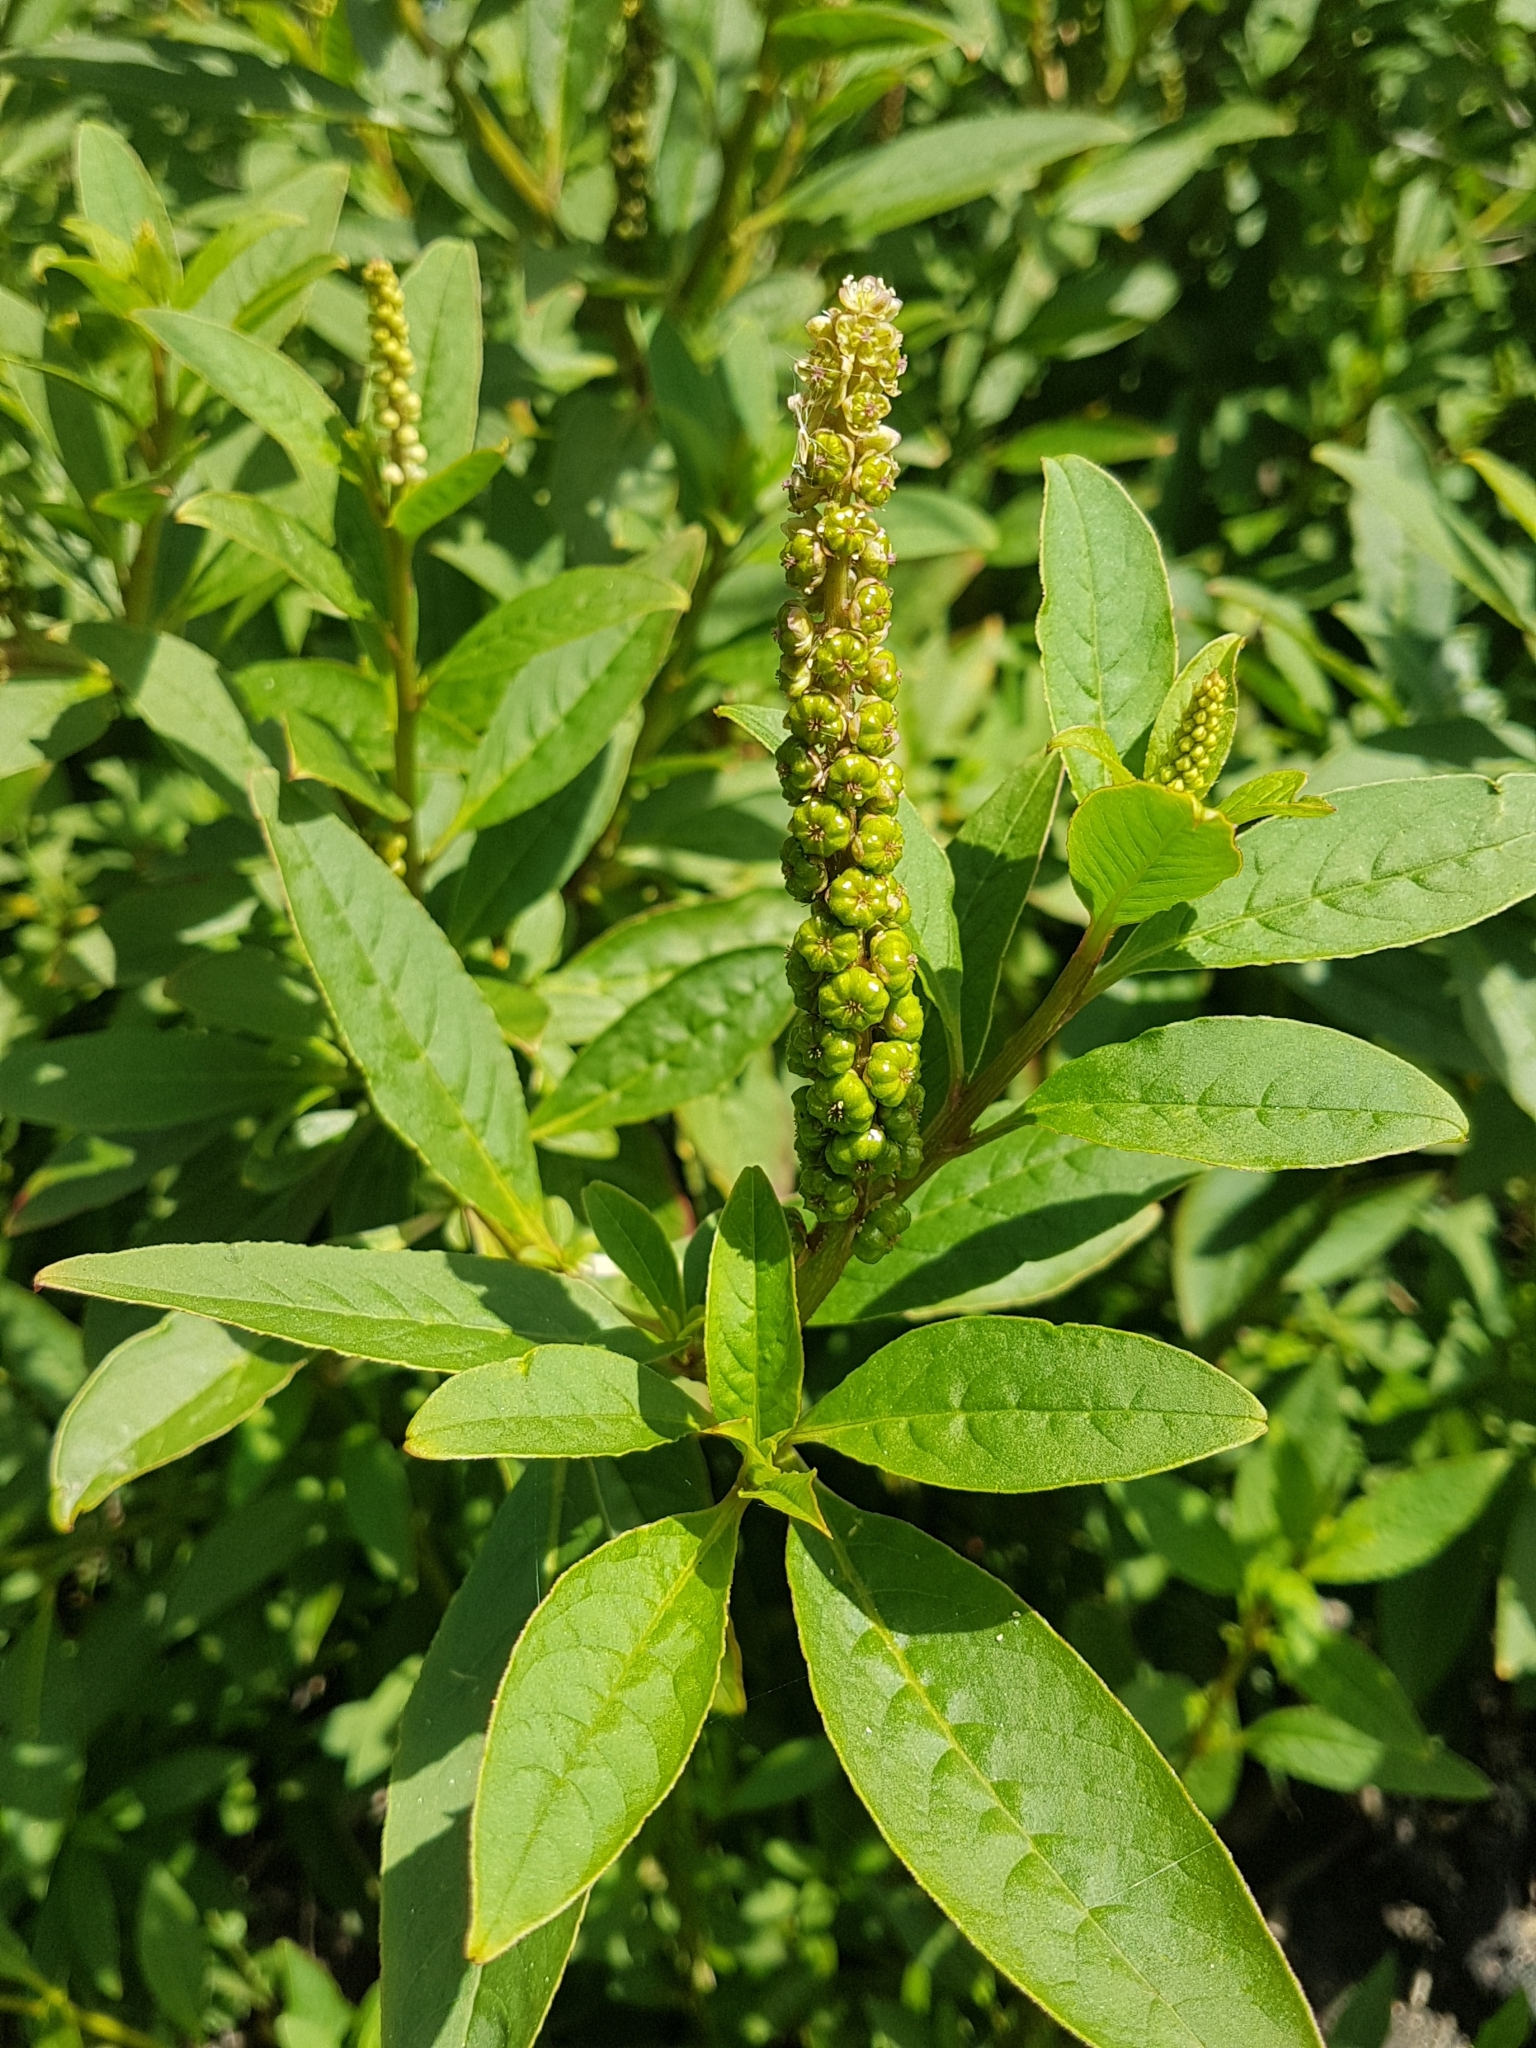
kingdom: Plantae
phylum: Tracheophyta
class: Magnoliopsida
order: Caryophyllales
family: Phytolaccaceae
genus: Phytolacca
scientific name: Phytolacca icosandra
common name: Button pokeweed
